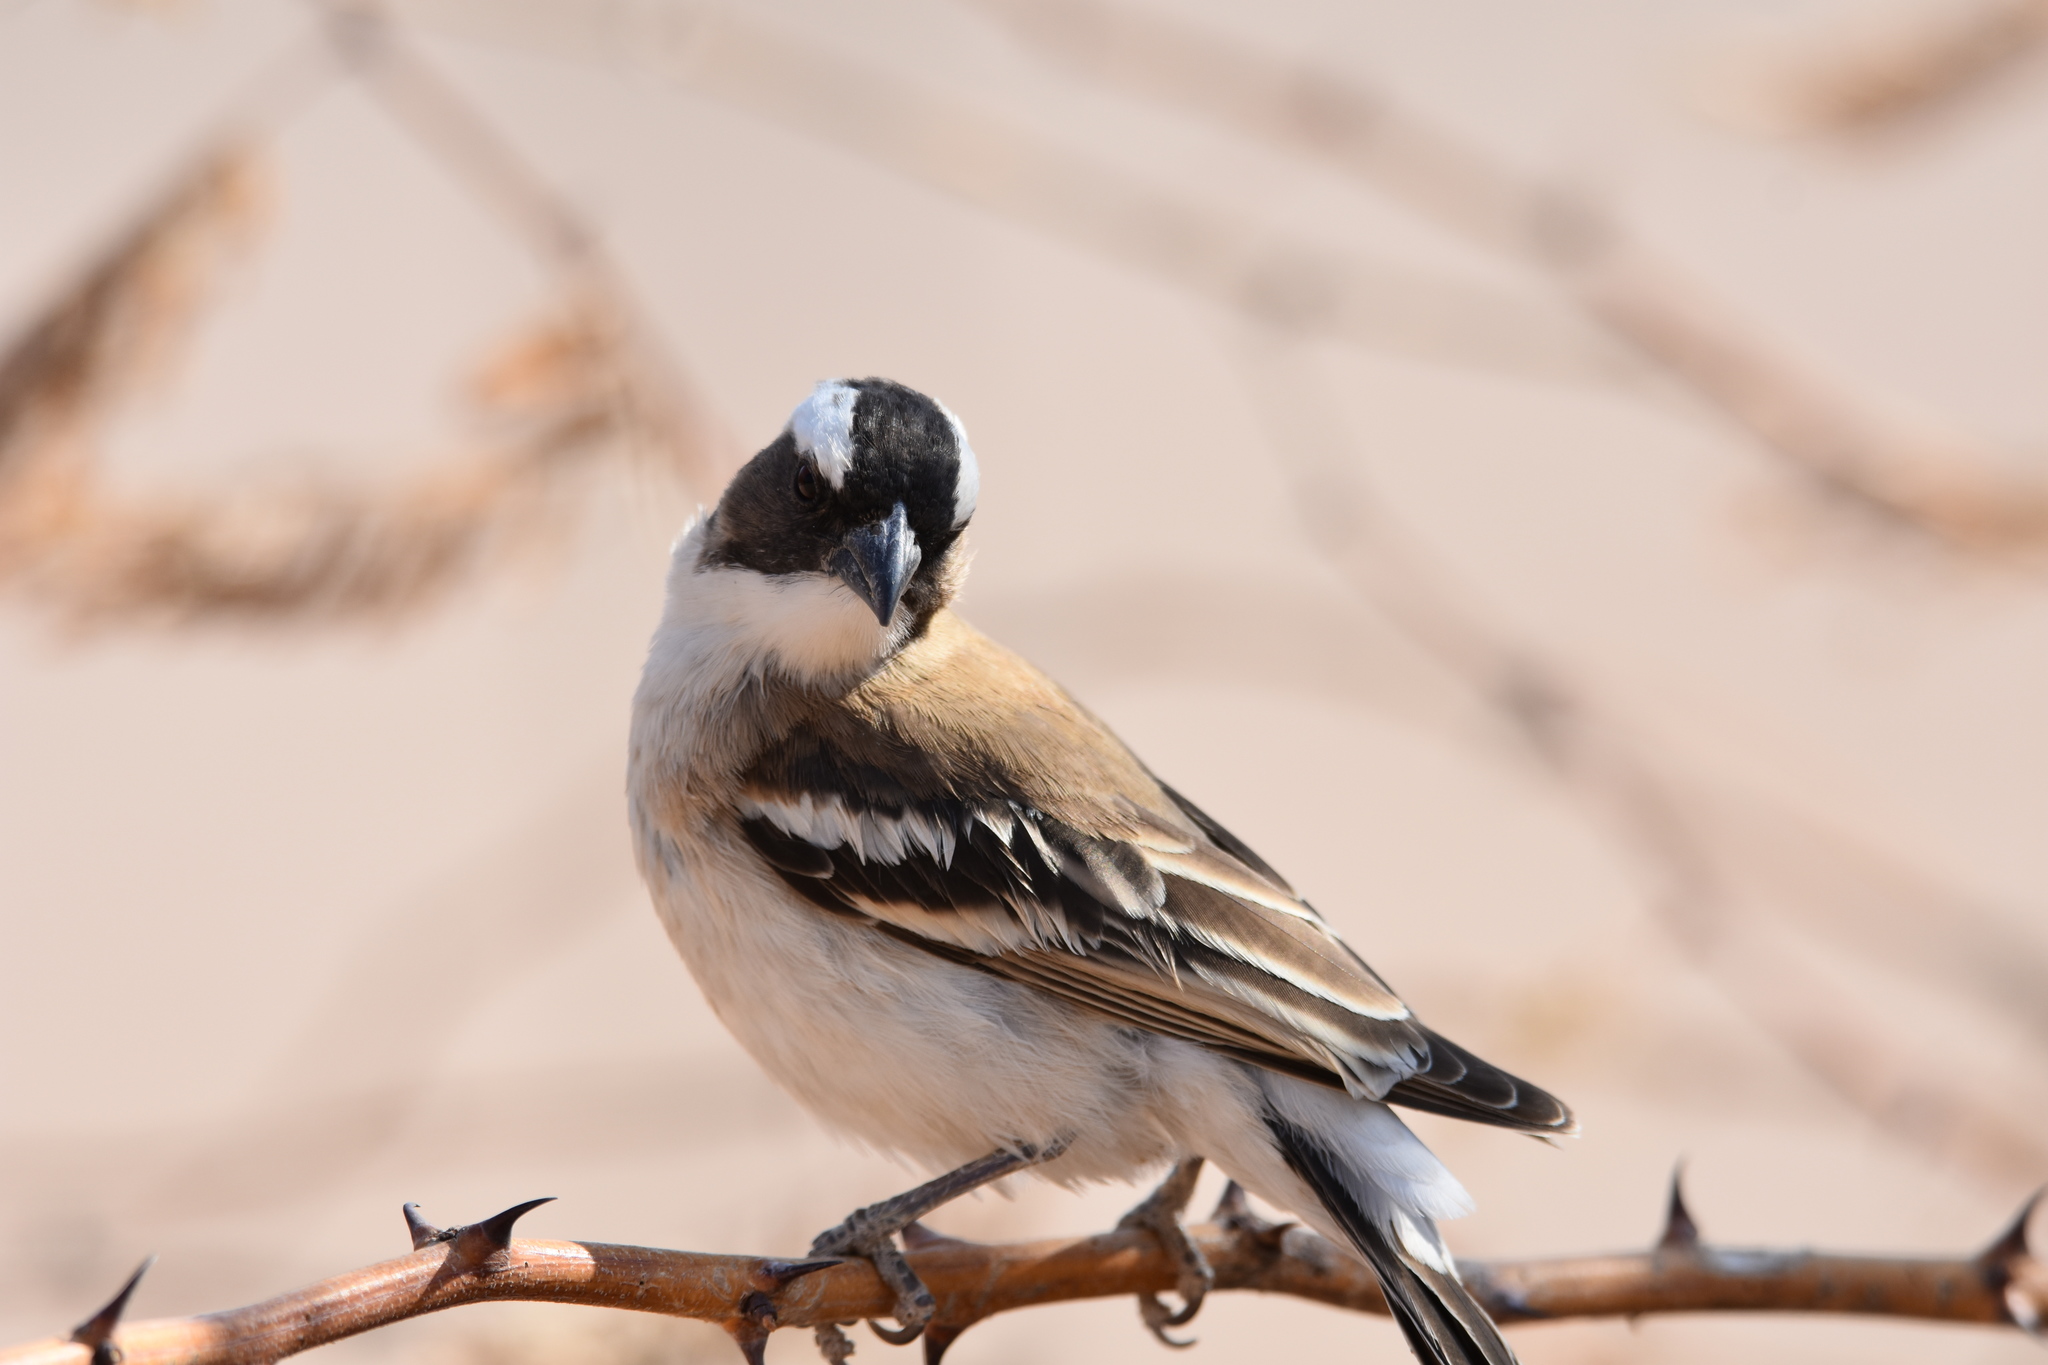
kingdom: Animalia
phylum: Chordata
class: Aves
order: Passeriformes
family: Passeridae
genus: Plocepasser
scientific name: Plocepasser mahali
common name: White-browed sparrow-weaver
